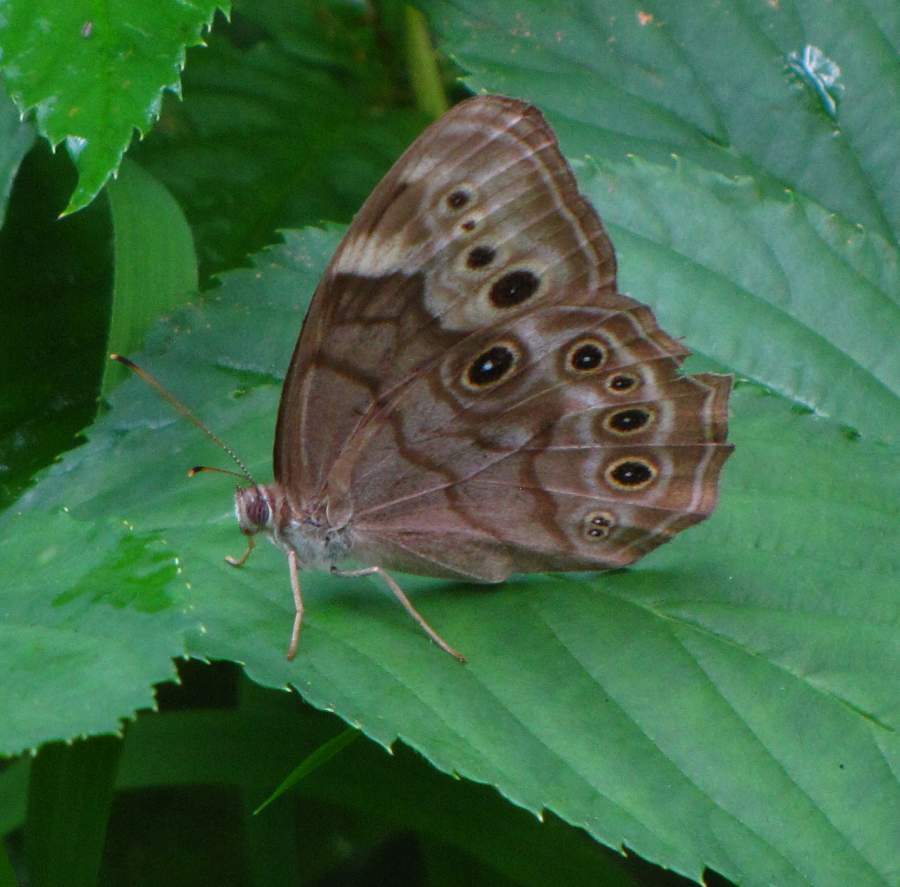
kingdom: Animalia
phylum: Arthropoda
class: Insecta
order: Lepidoptera
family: Nymphalidae
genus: Lethe
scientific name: Lethe anthedon
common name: Northern pearly-eye
